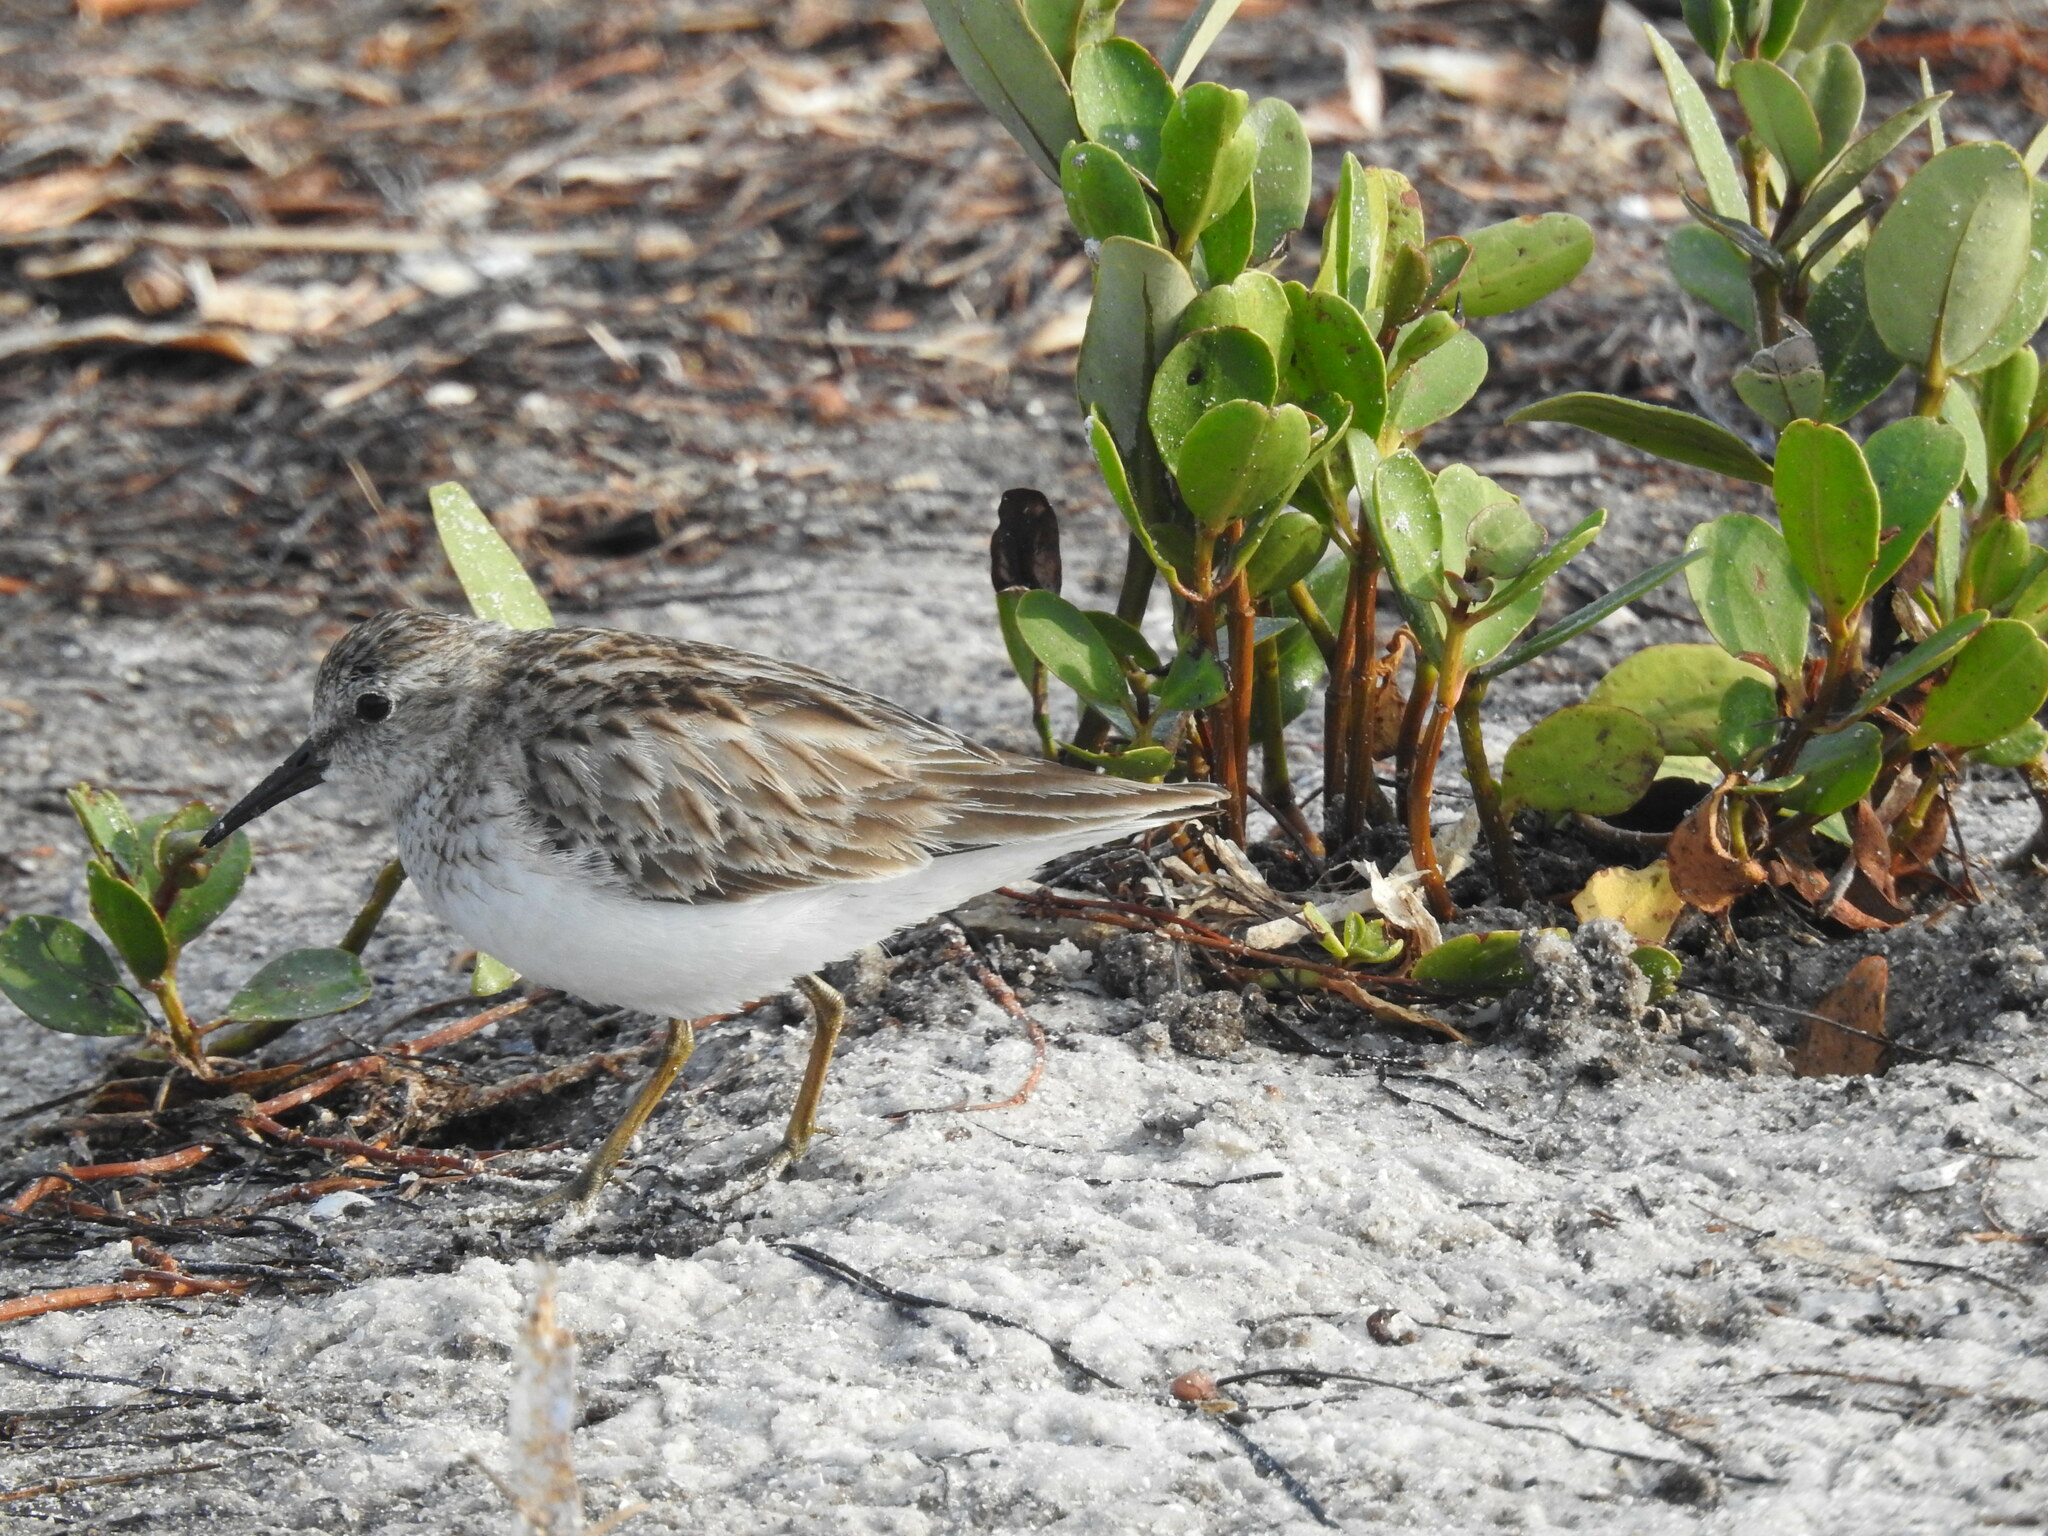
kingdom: Animalia
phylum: Chordata
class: Aves
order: Charadriiformes
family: Scolopacidae
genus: Calidris
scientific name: Calidris minutilla
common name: Least sandpiper
